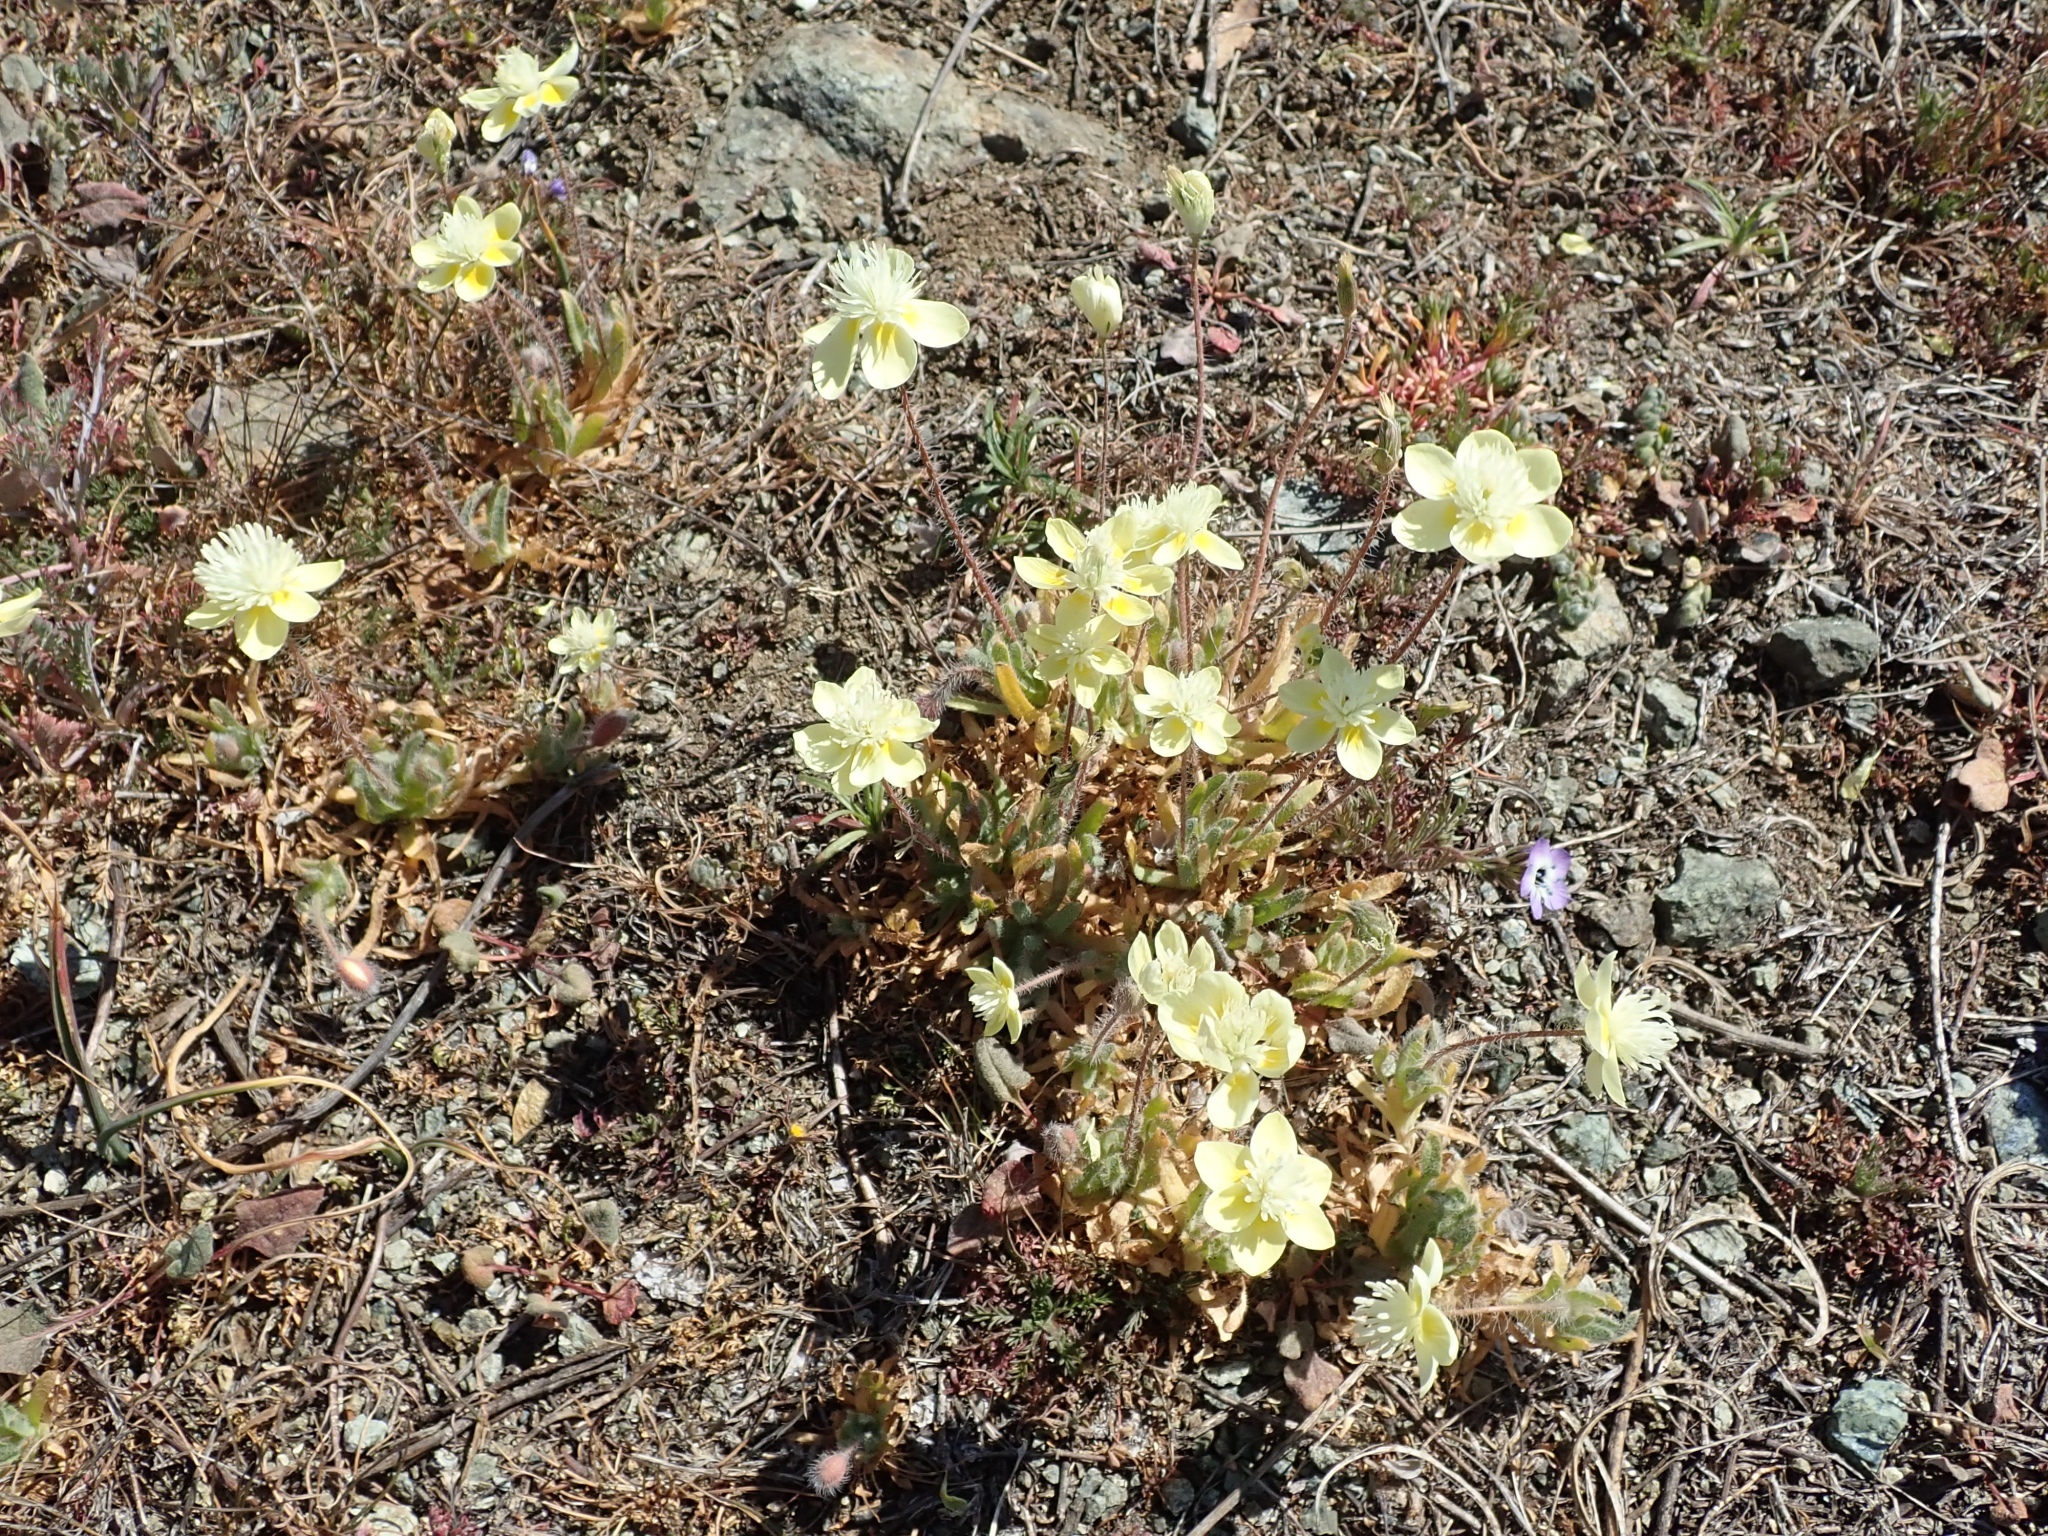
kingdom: Plantae
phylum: Tracheophyta
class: Magnoliopsida
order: Ranunculales
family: Papaveraceae
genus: Platystemon
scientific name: Platystemon californicus
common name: Cream-cups
